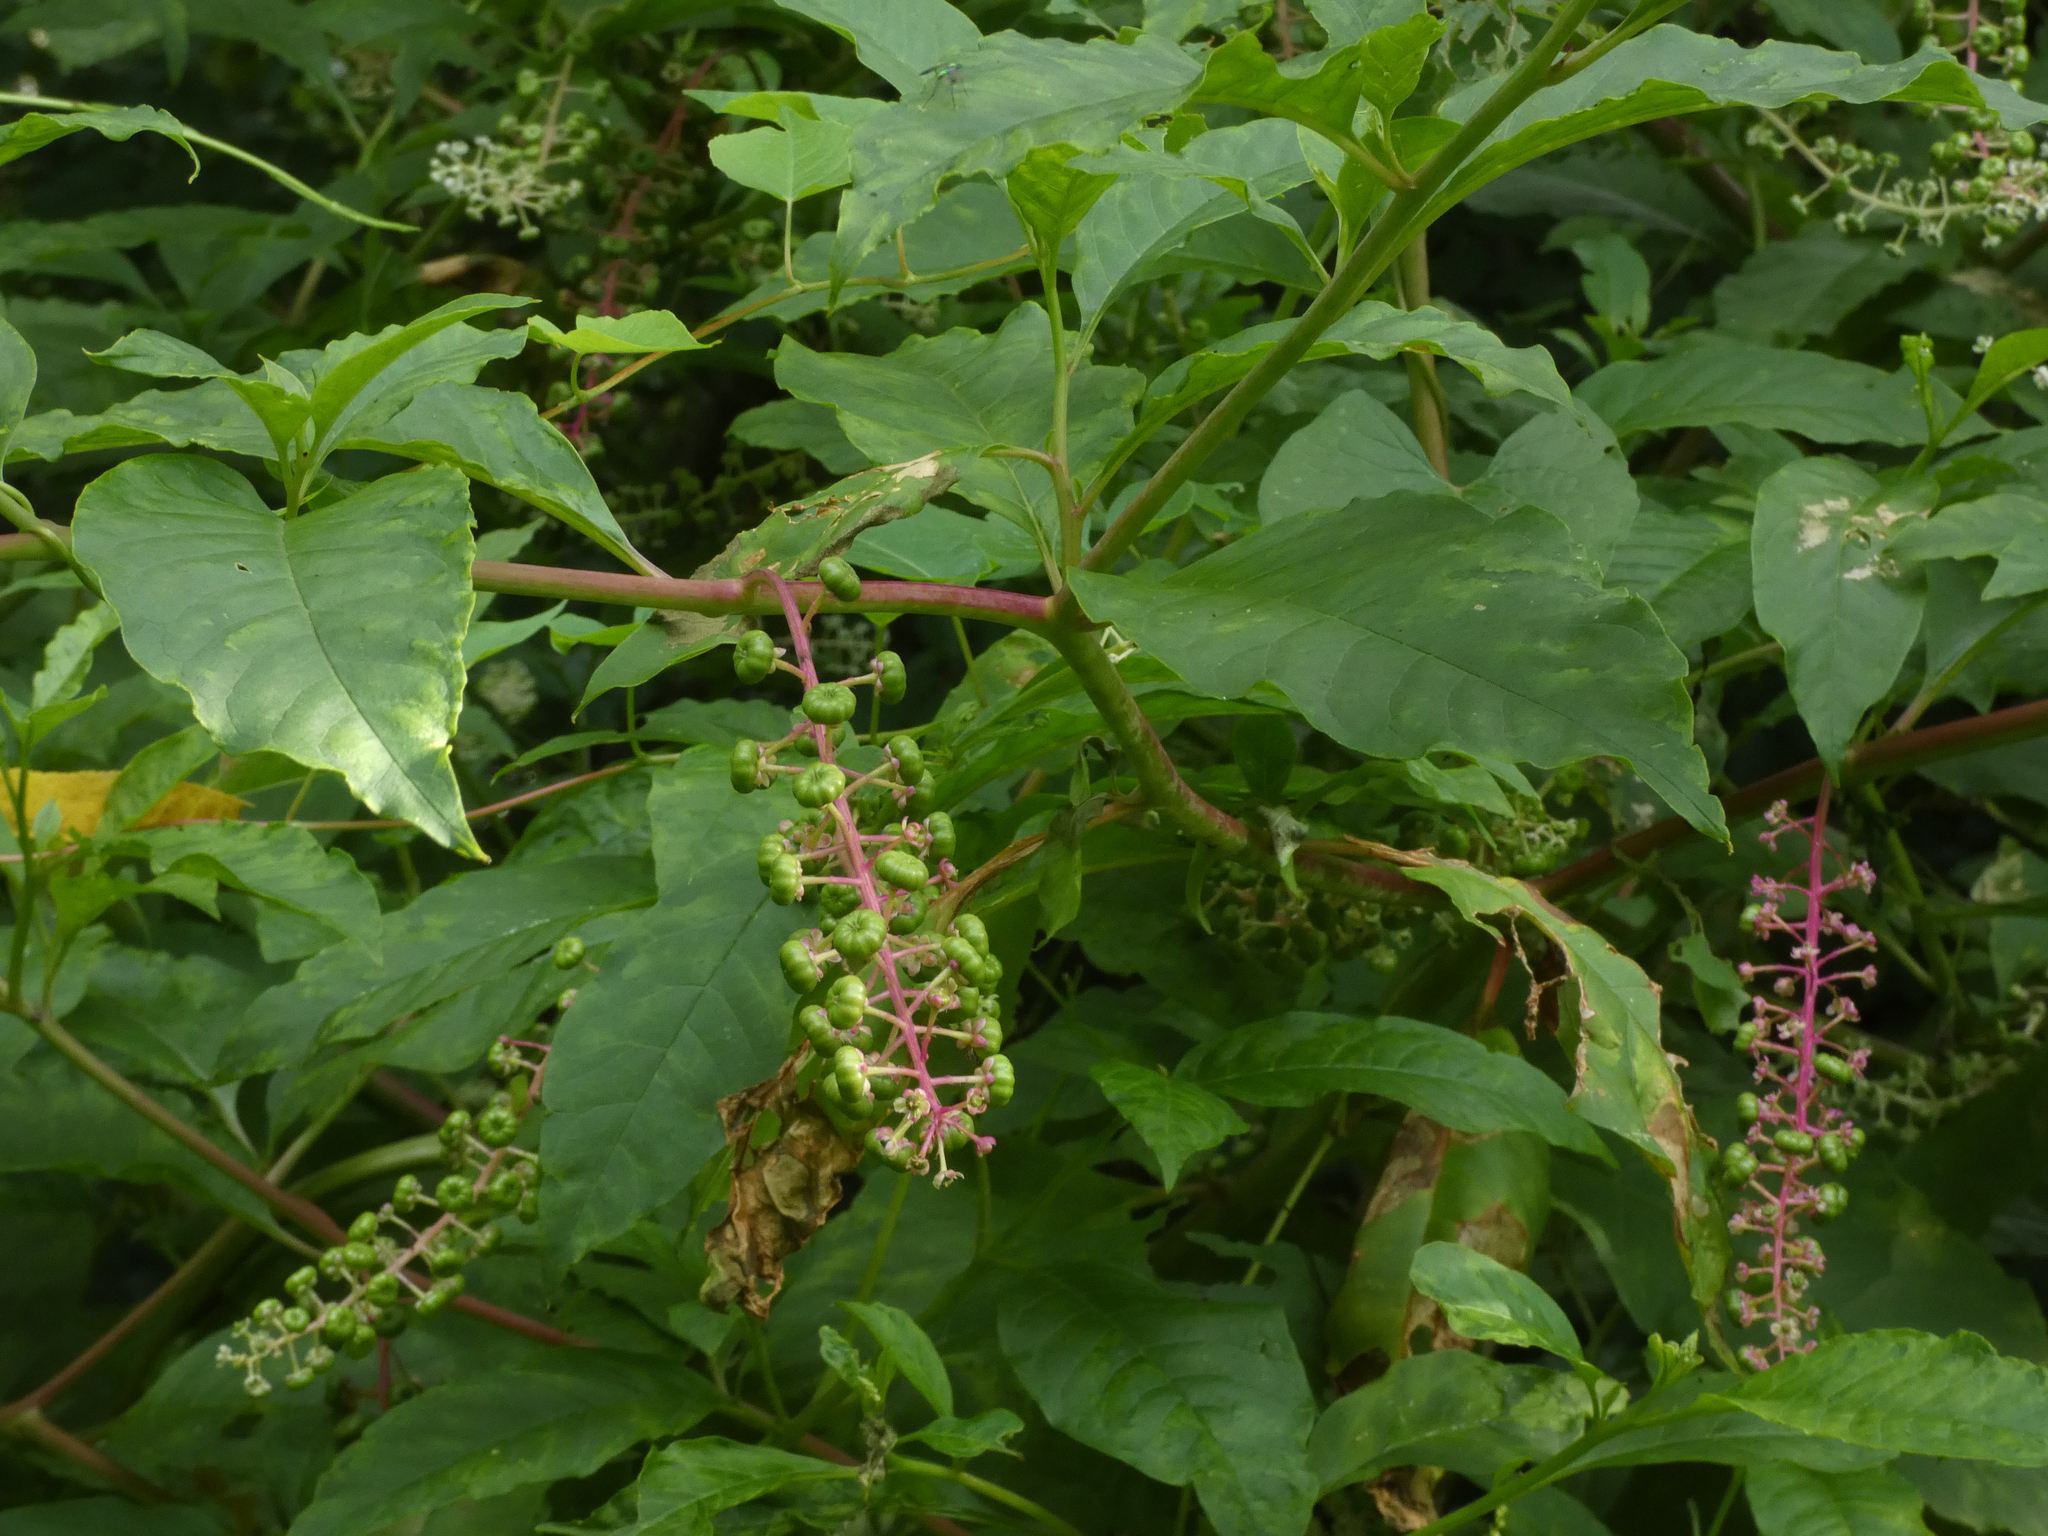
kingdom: Plantae
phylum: Tracheophyta
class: Magnoliopsida
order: Caryophyllales
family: Phytolaccaceae
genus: Phytolacca
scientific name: Phytolacca americana
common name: American pokeweed
